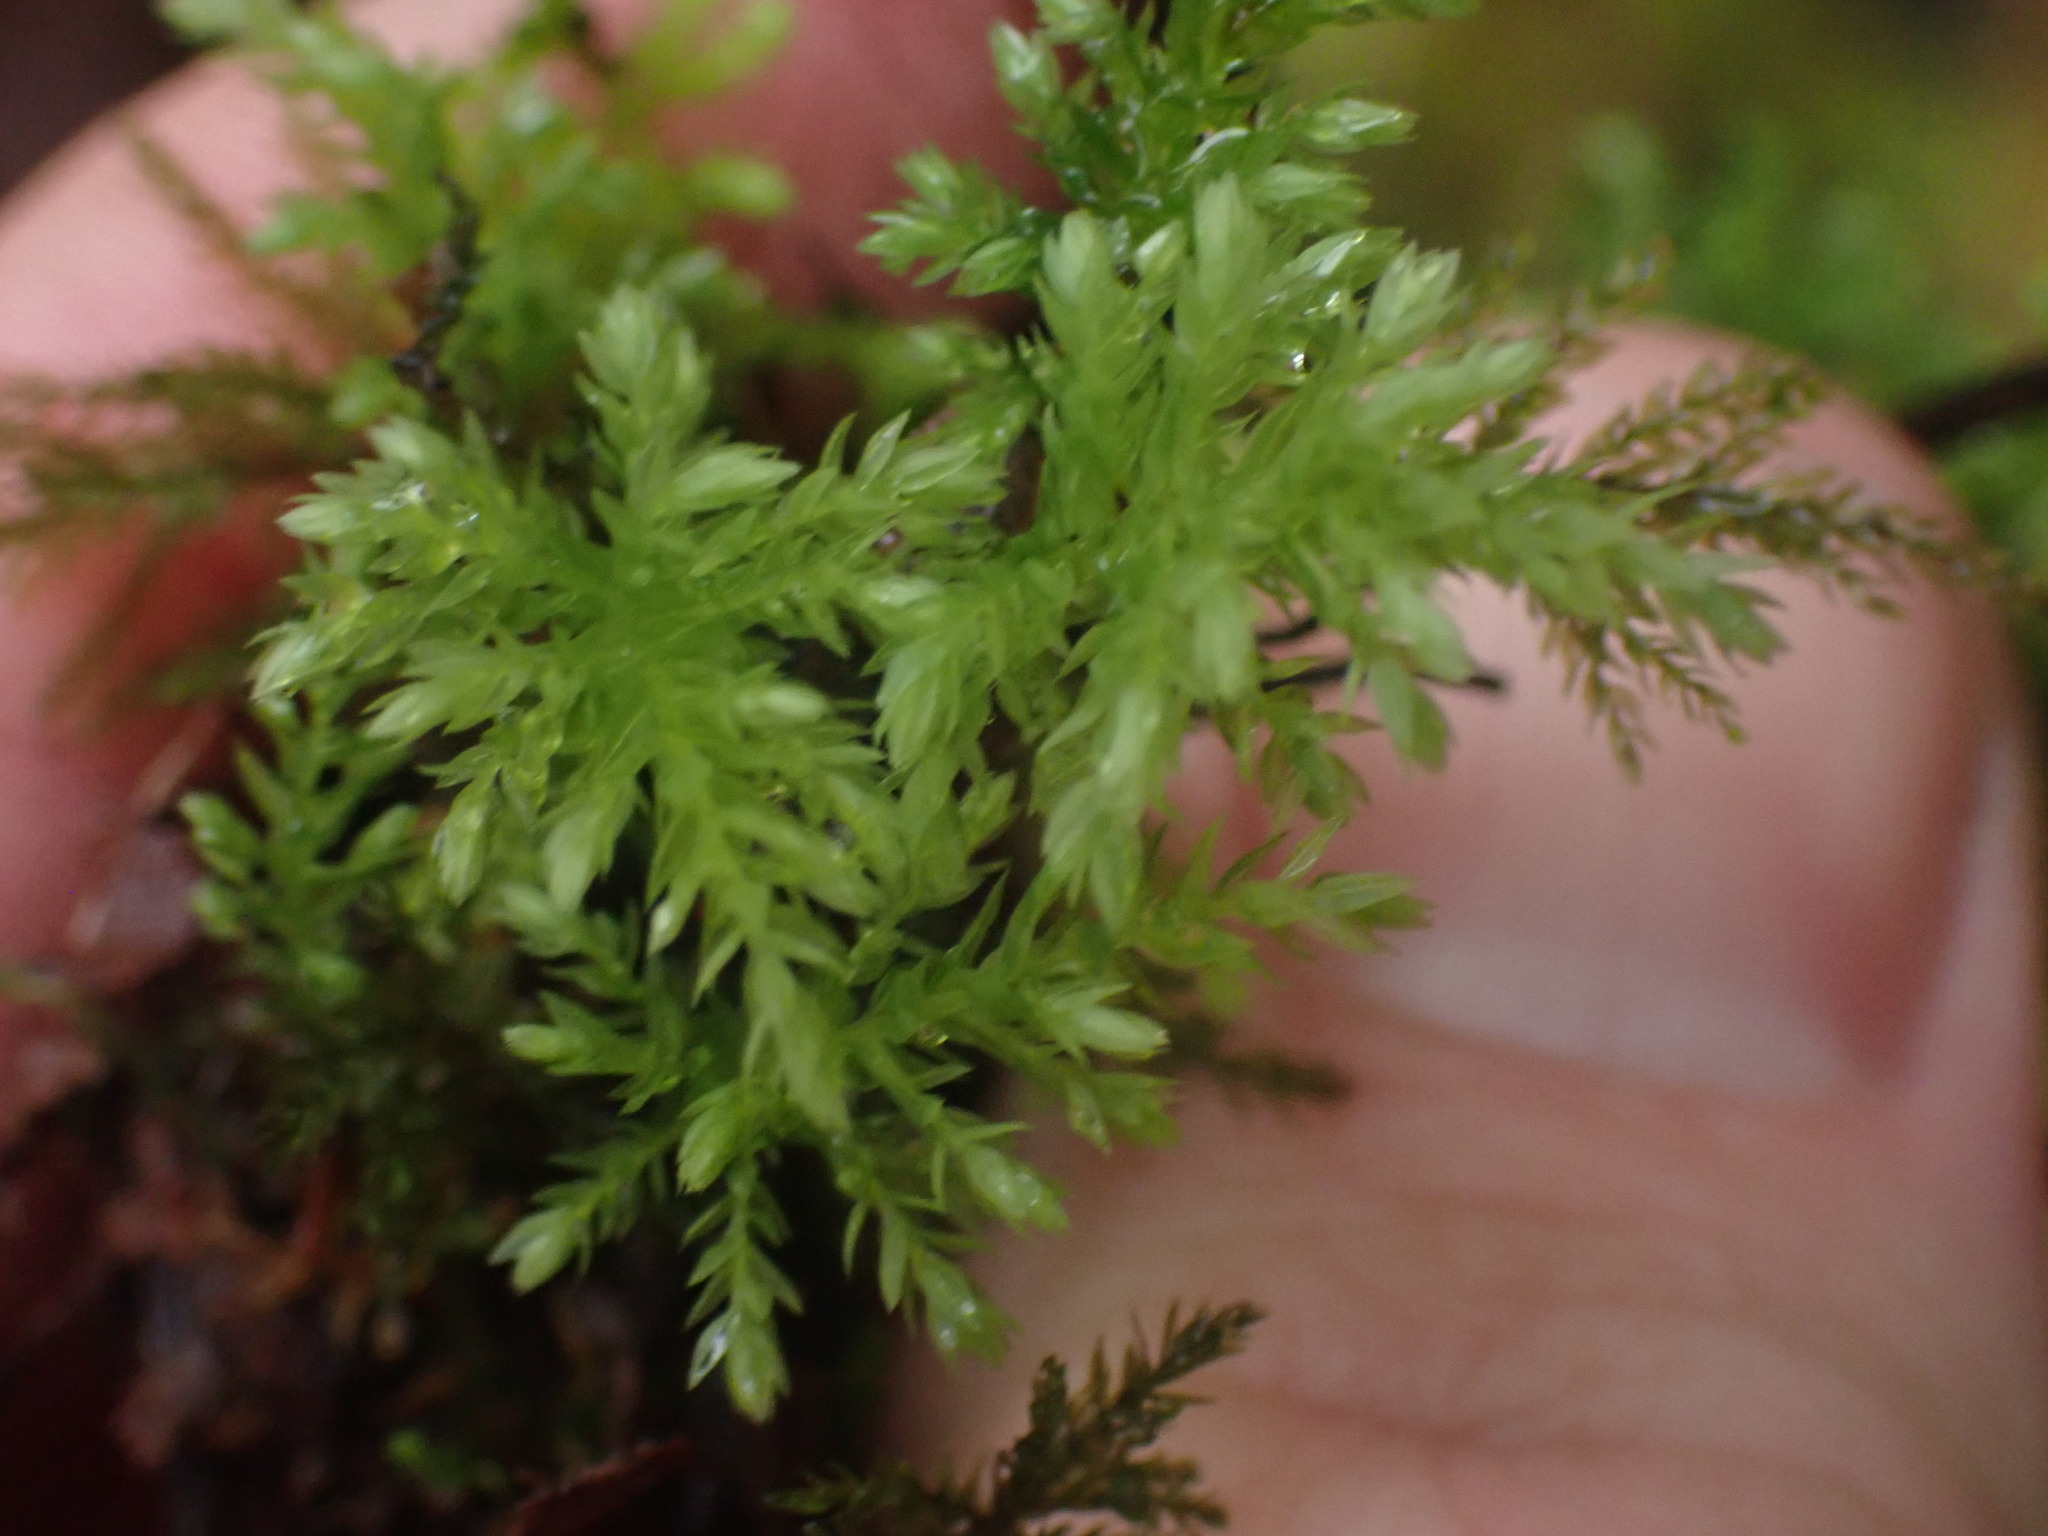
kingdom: Plantae
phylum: Bryophyta
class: Bryopsida
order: Bryales
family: Mniaceae
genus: Leucolepis
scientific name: Leucolepis acanthoneura
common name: Leucolepis umbrella moss
